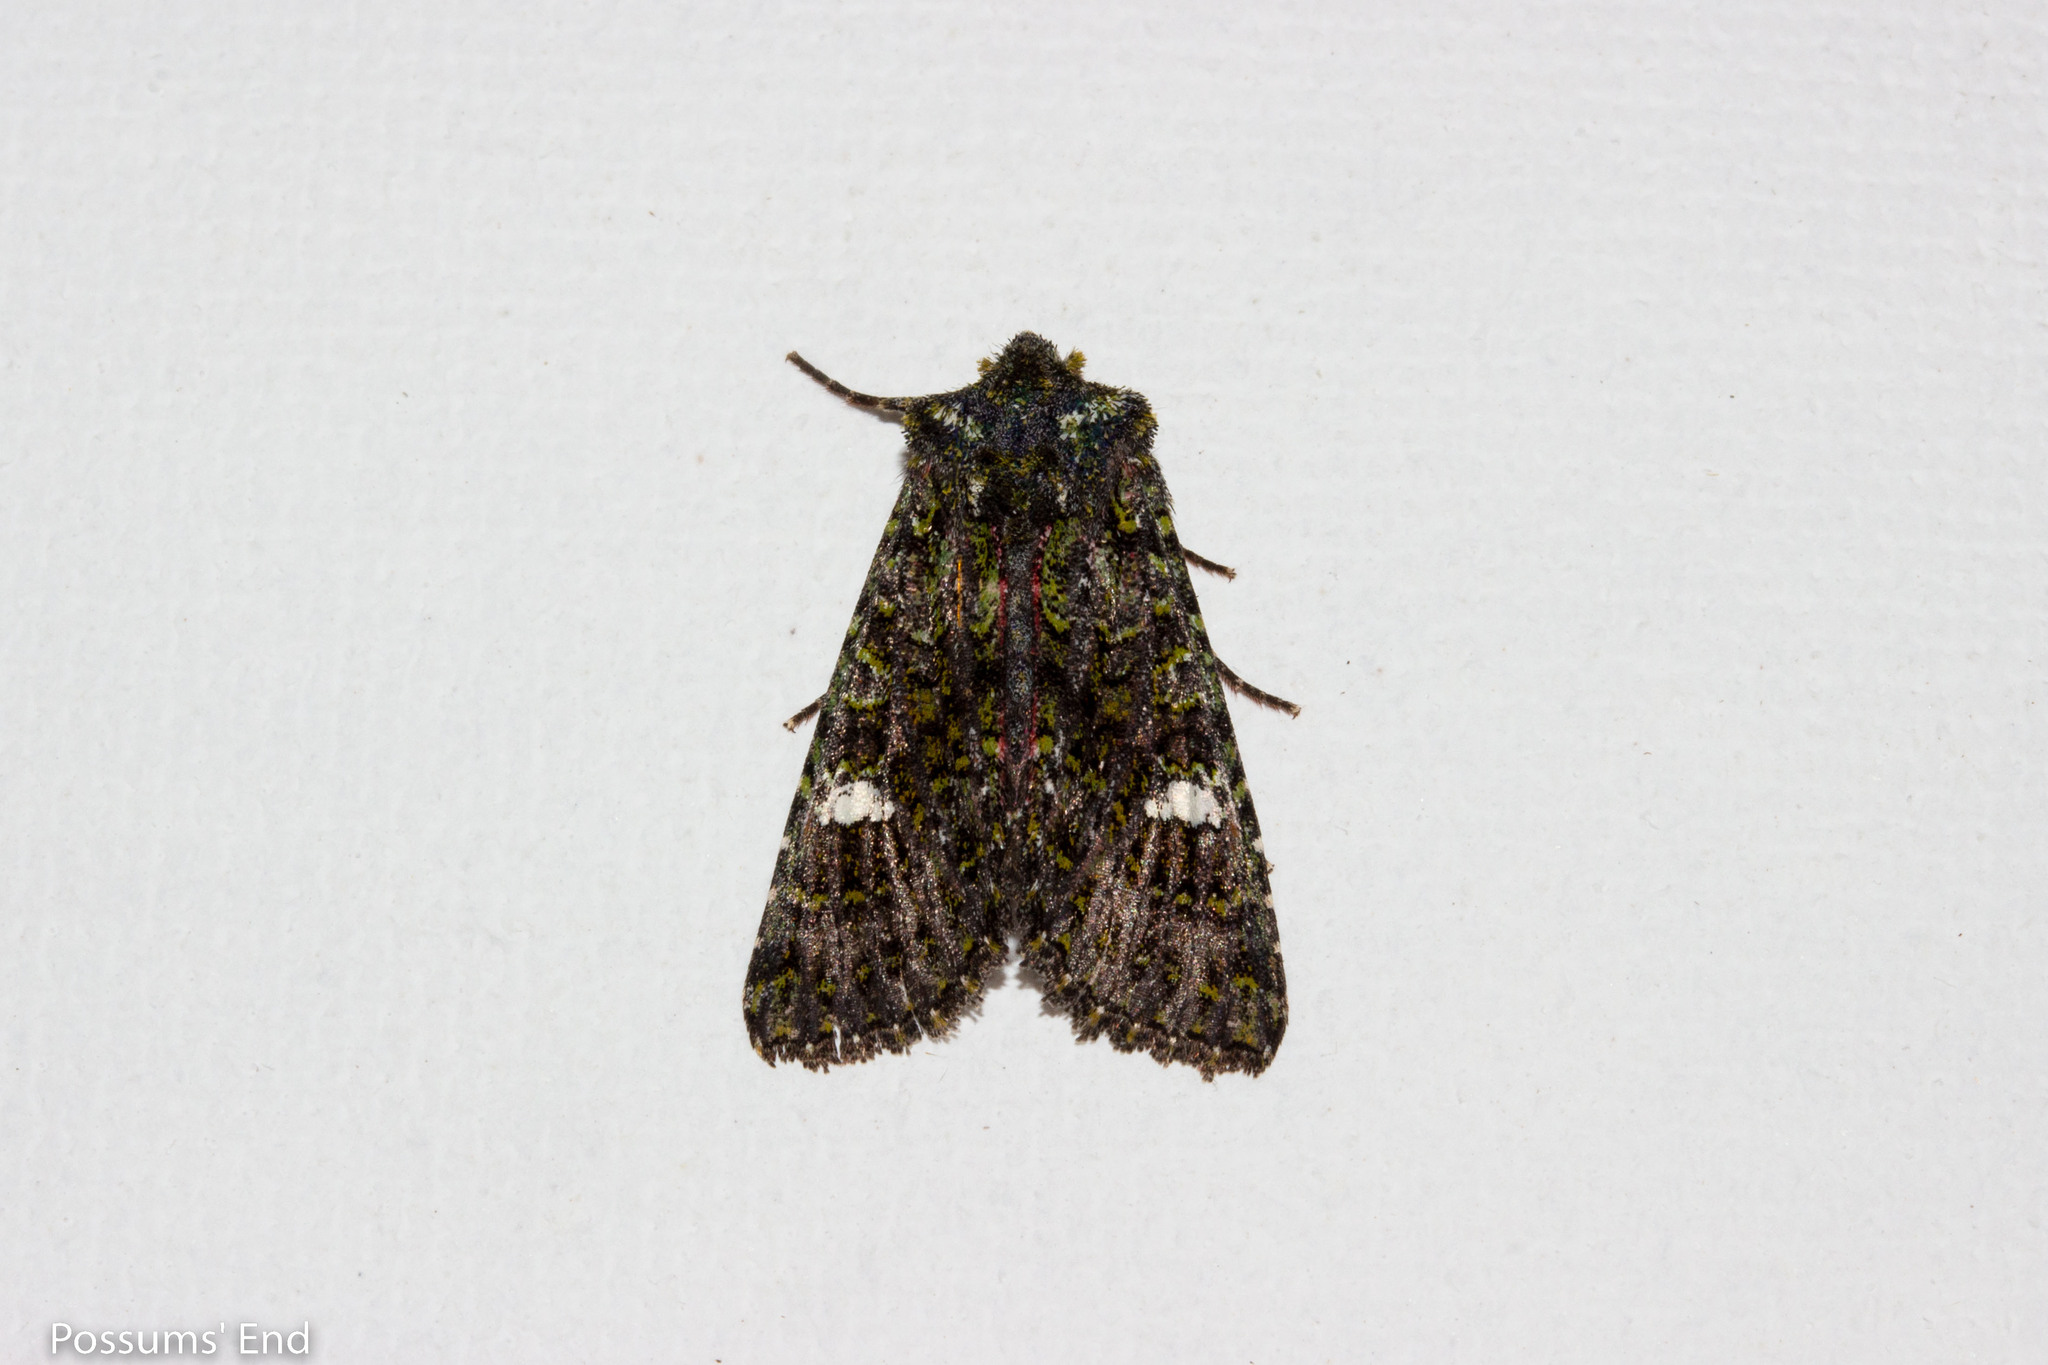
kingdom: Animalia
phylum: Arthropoda
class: Insecta
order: Lepidoptera
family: Noctuidae
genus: Meterana
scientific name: Meterana meyricci
